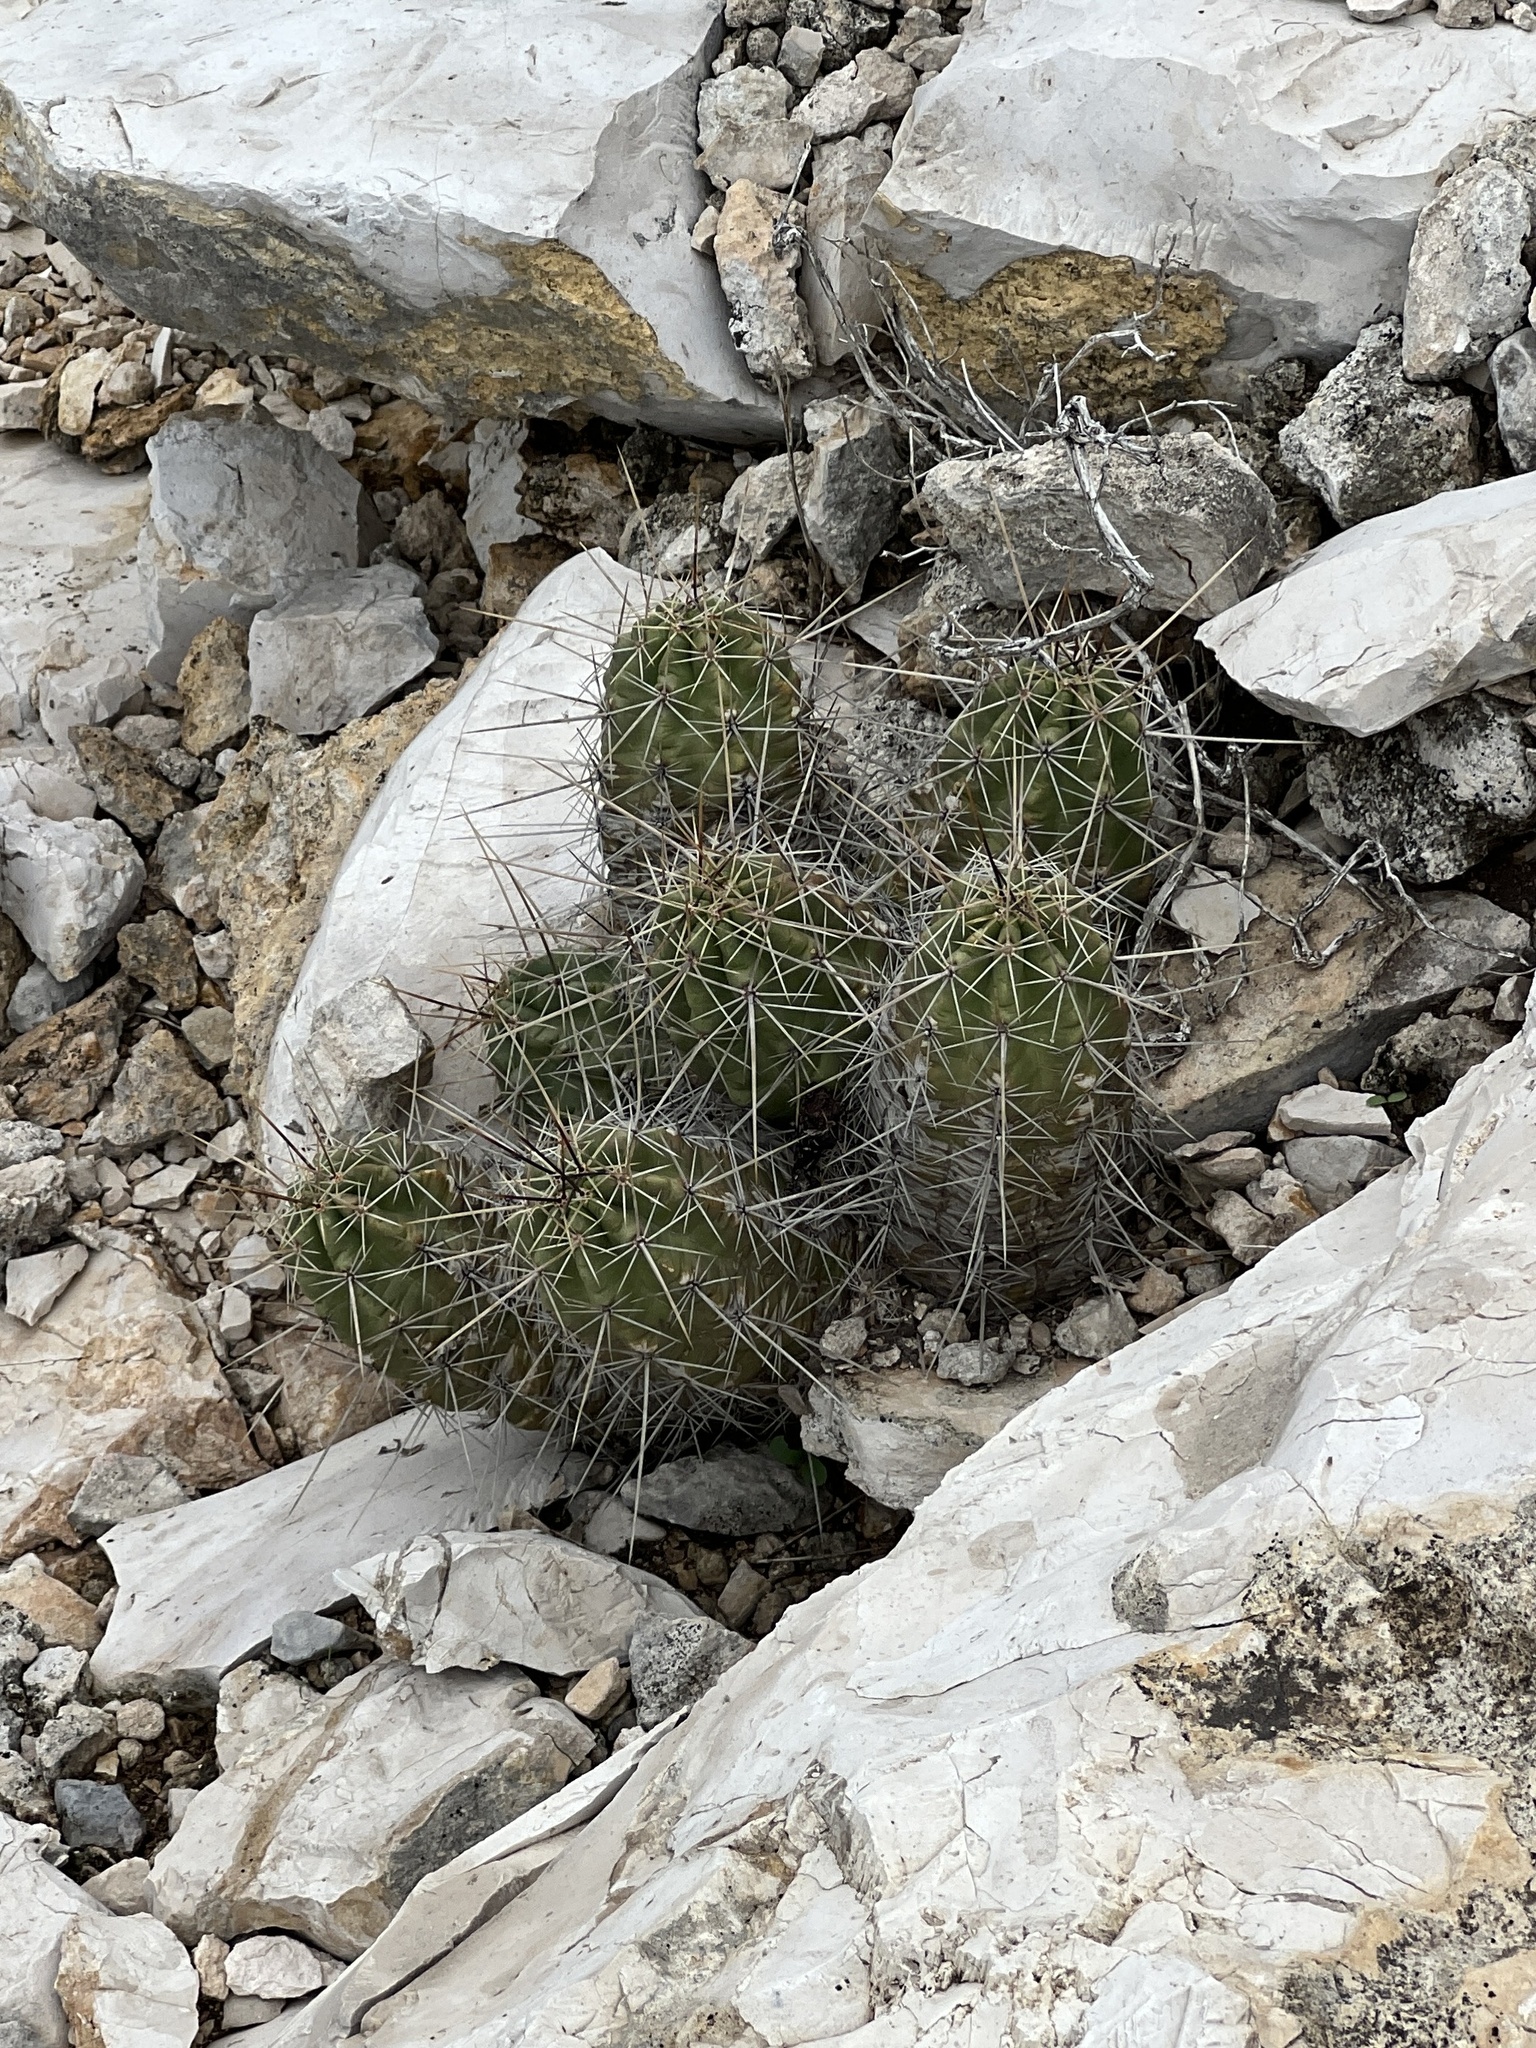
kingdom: Plantae
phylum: Tracheophyta
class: Magnoliopsida
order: Caryophyllales
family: Cactaceae
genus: Echinocereus
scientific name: Echinocereus enneacanthus
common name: Pitaya
